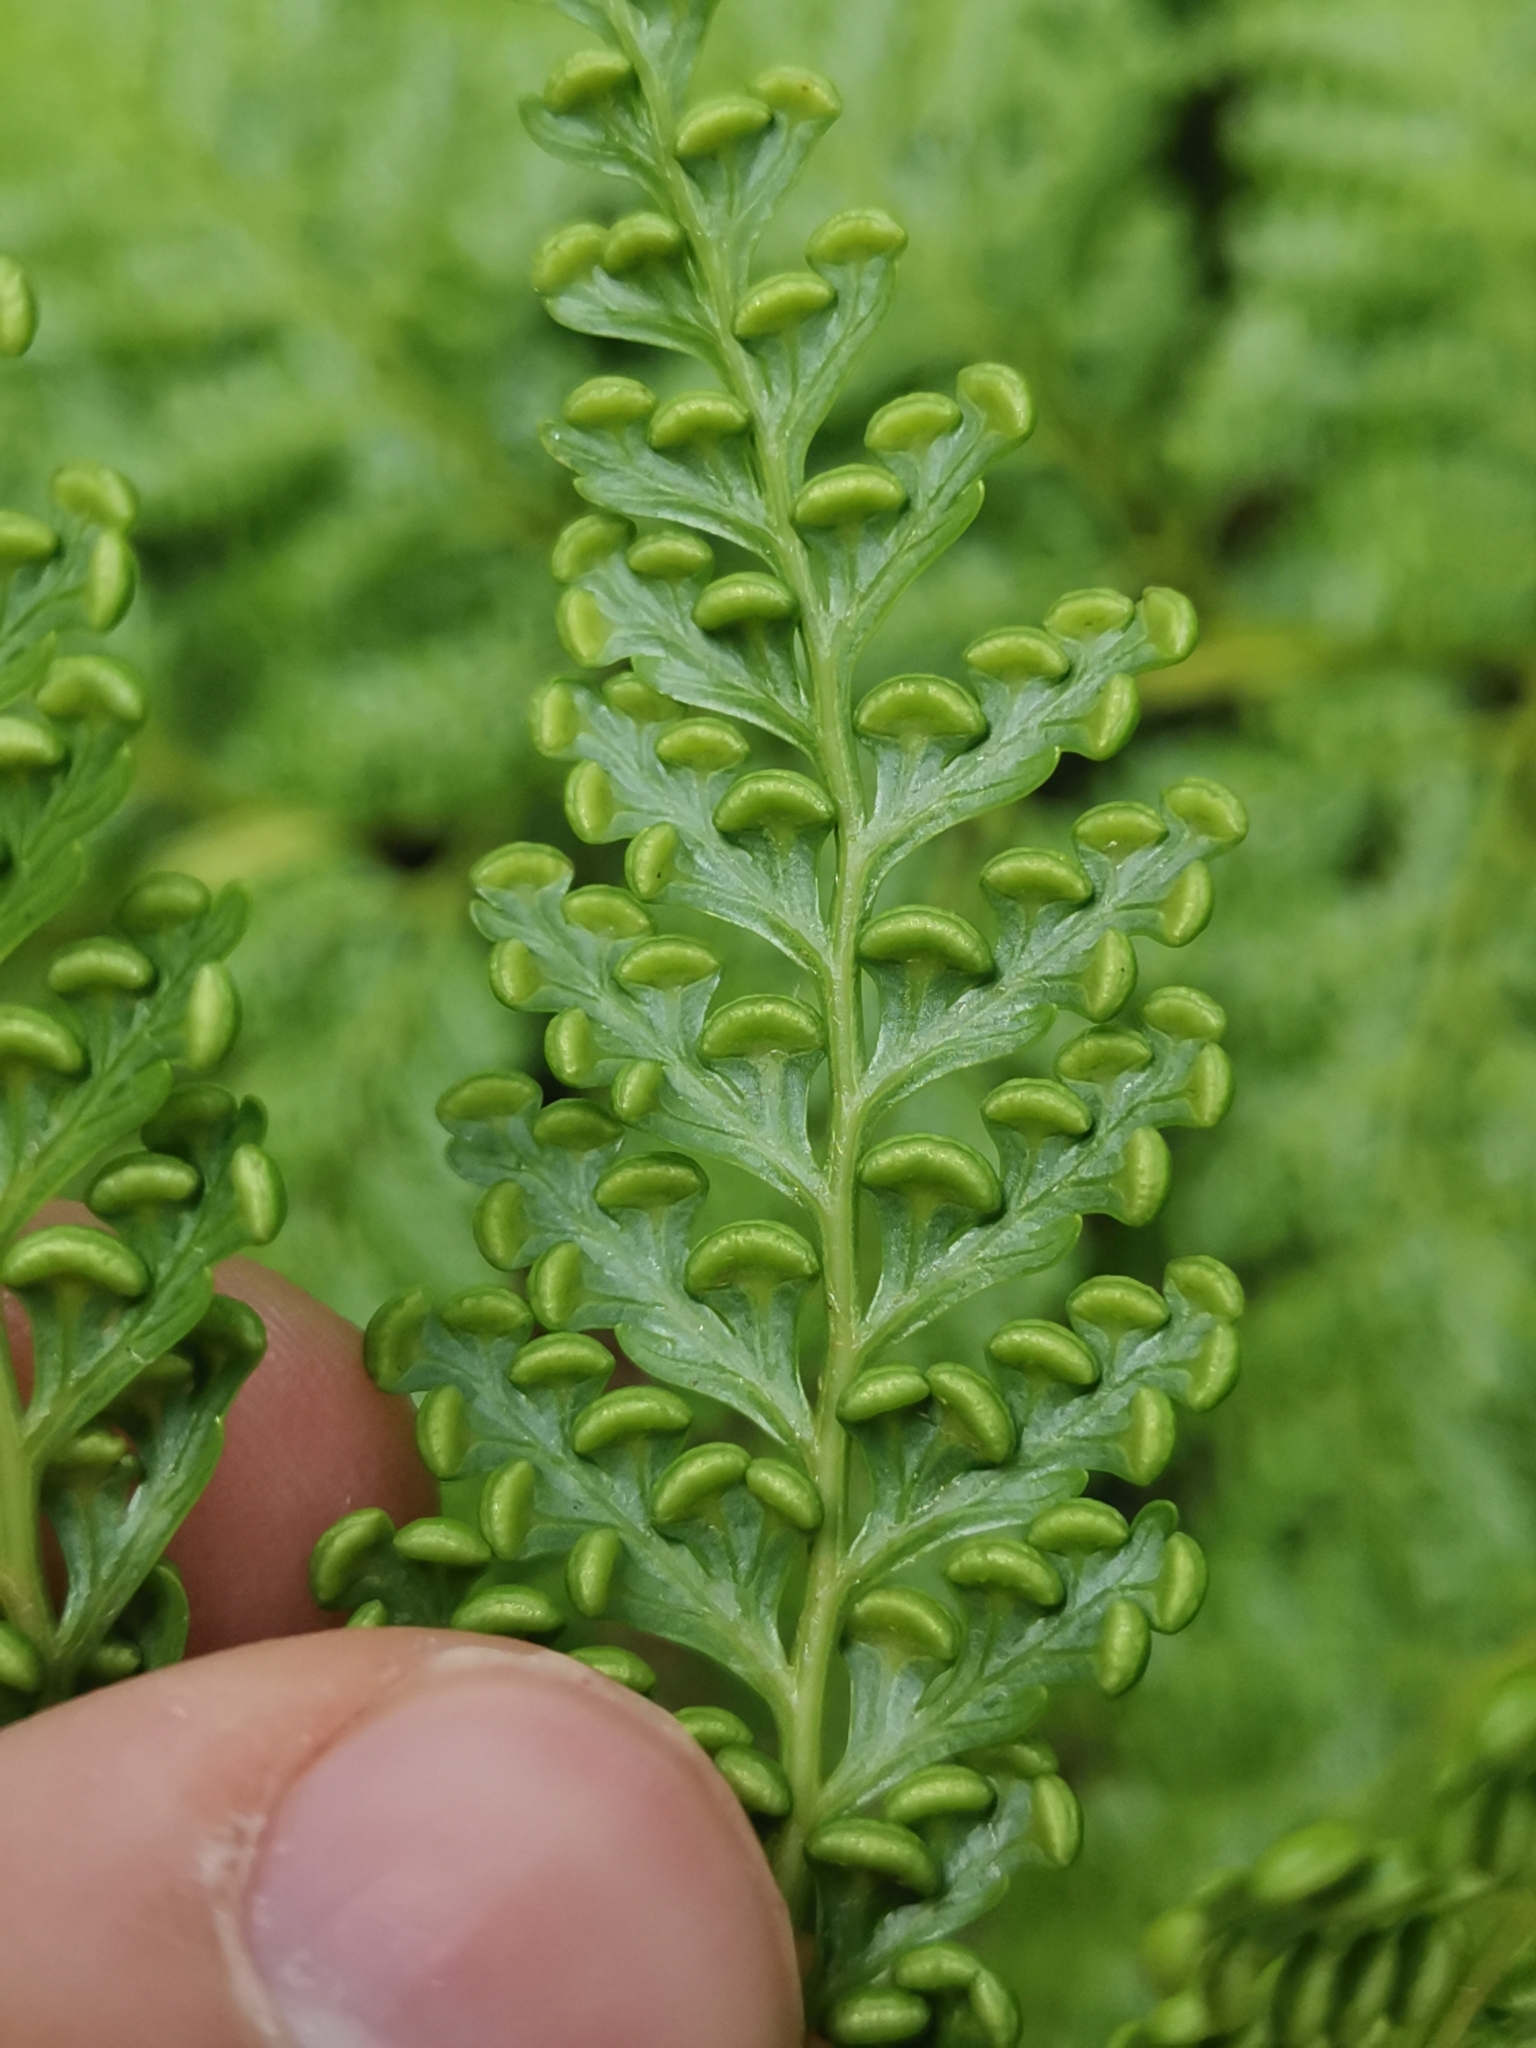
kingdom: Plantae
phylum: Tracheophyta
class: Polypodiopsida
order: Cyatheales
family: Culcitaceae
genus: Culcita
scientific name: Culcita macrocarpa
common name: Woolly tree fern
